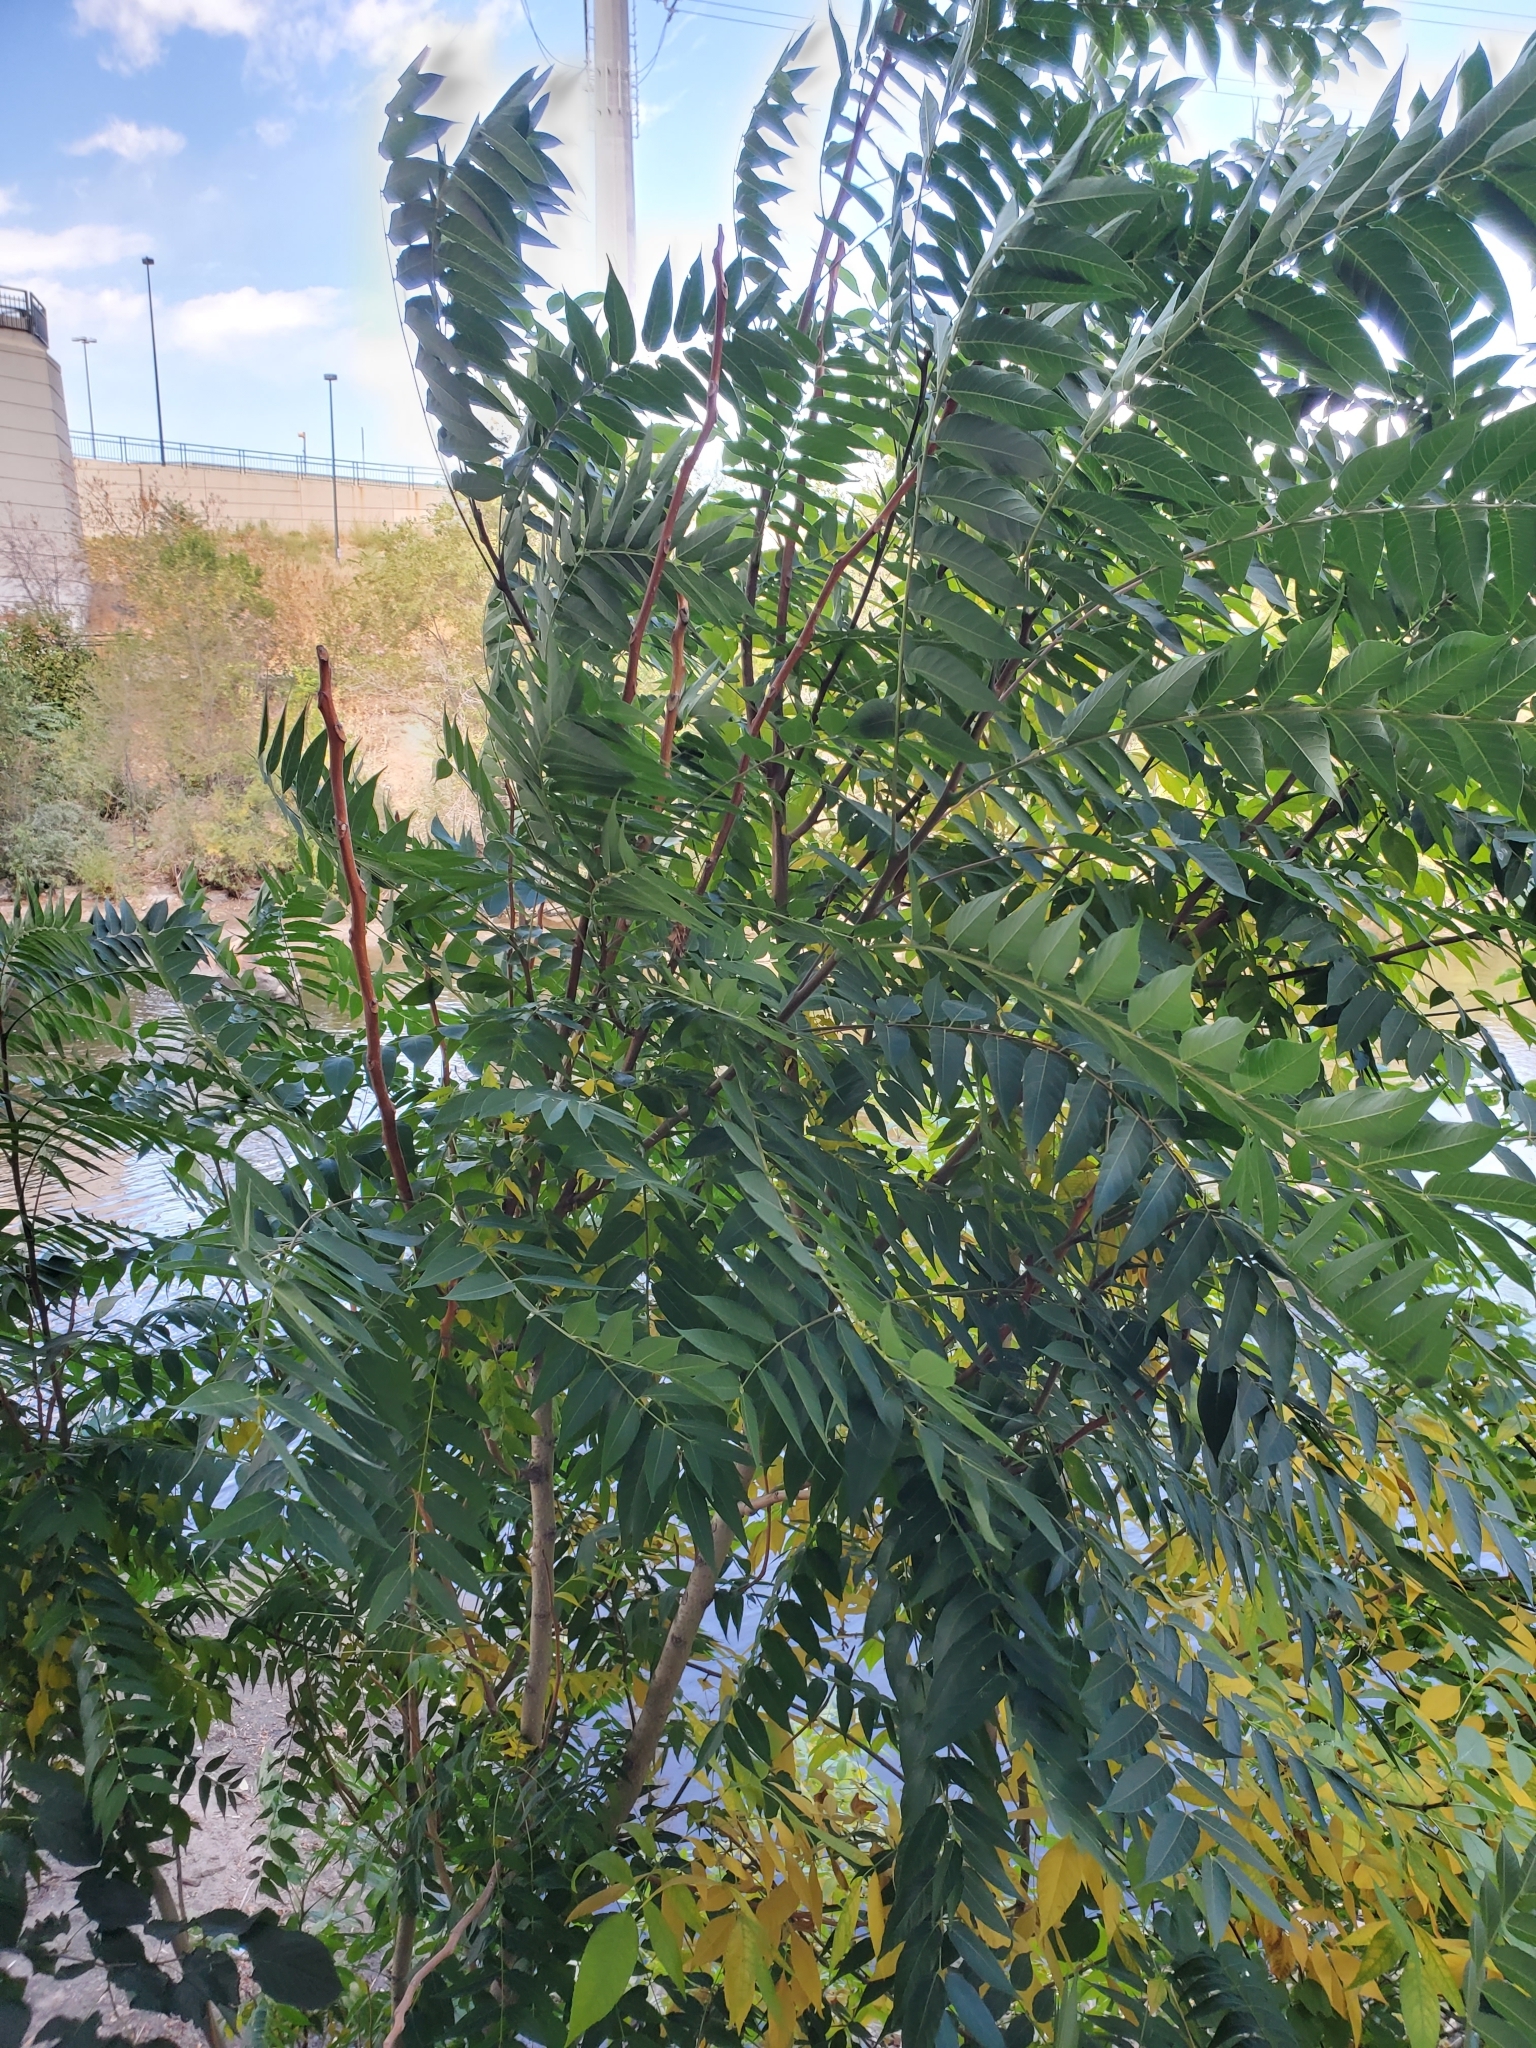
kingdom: Plantae
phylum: Tracheophyta
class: Magnoliopsida
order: Sapindales
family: Simaroubaceae
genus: Ailanthus
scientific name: Ailanthus altissima
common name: Tree-of-heaven
